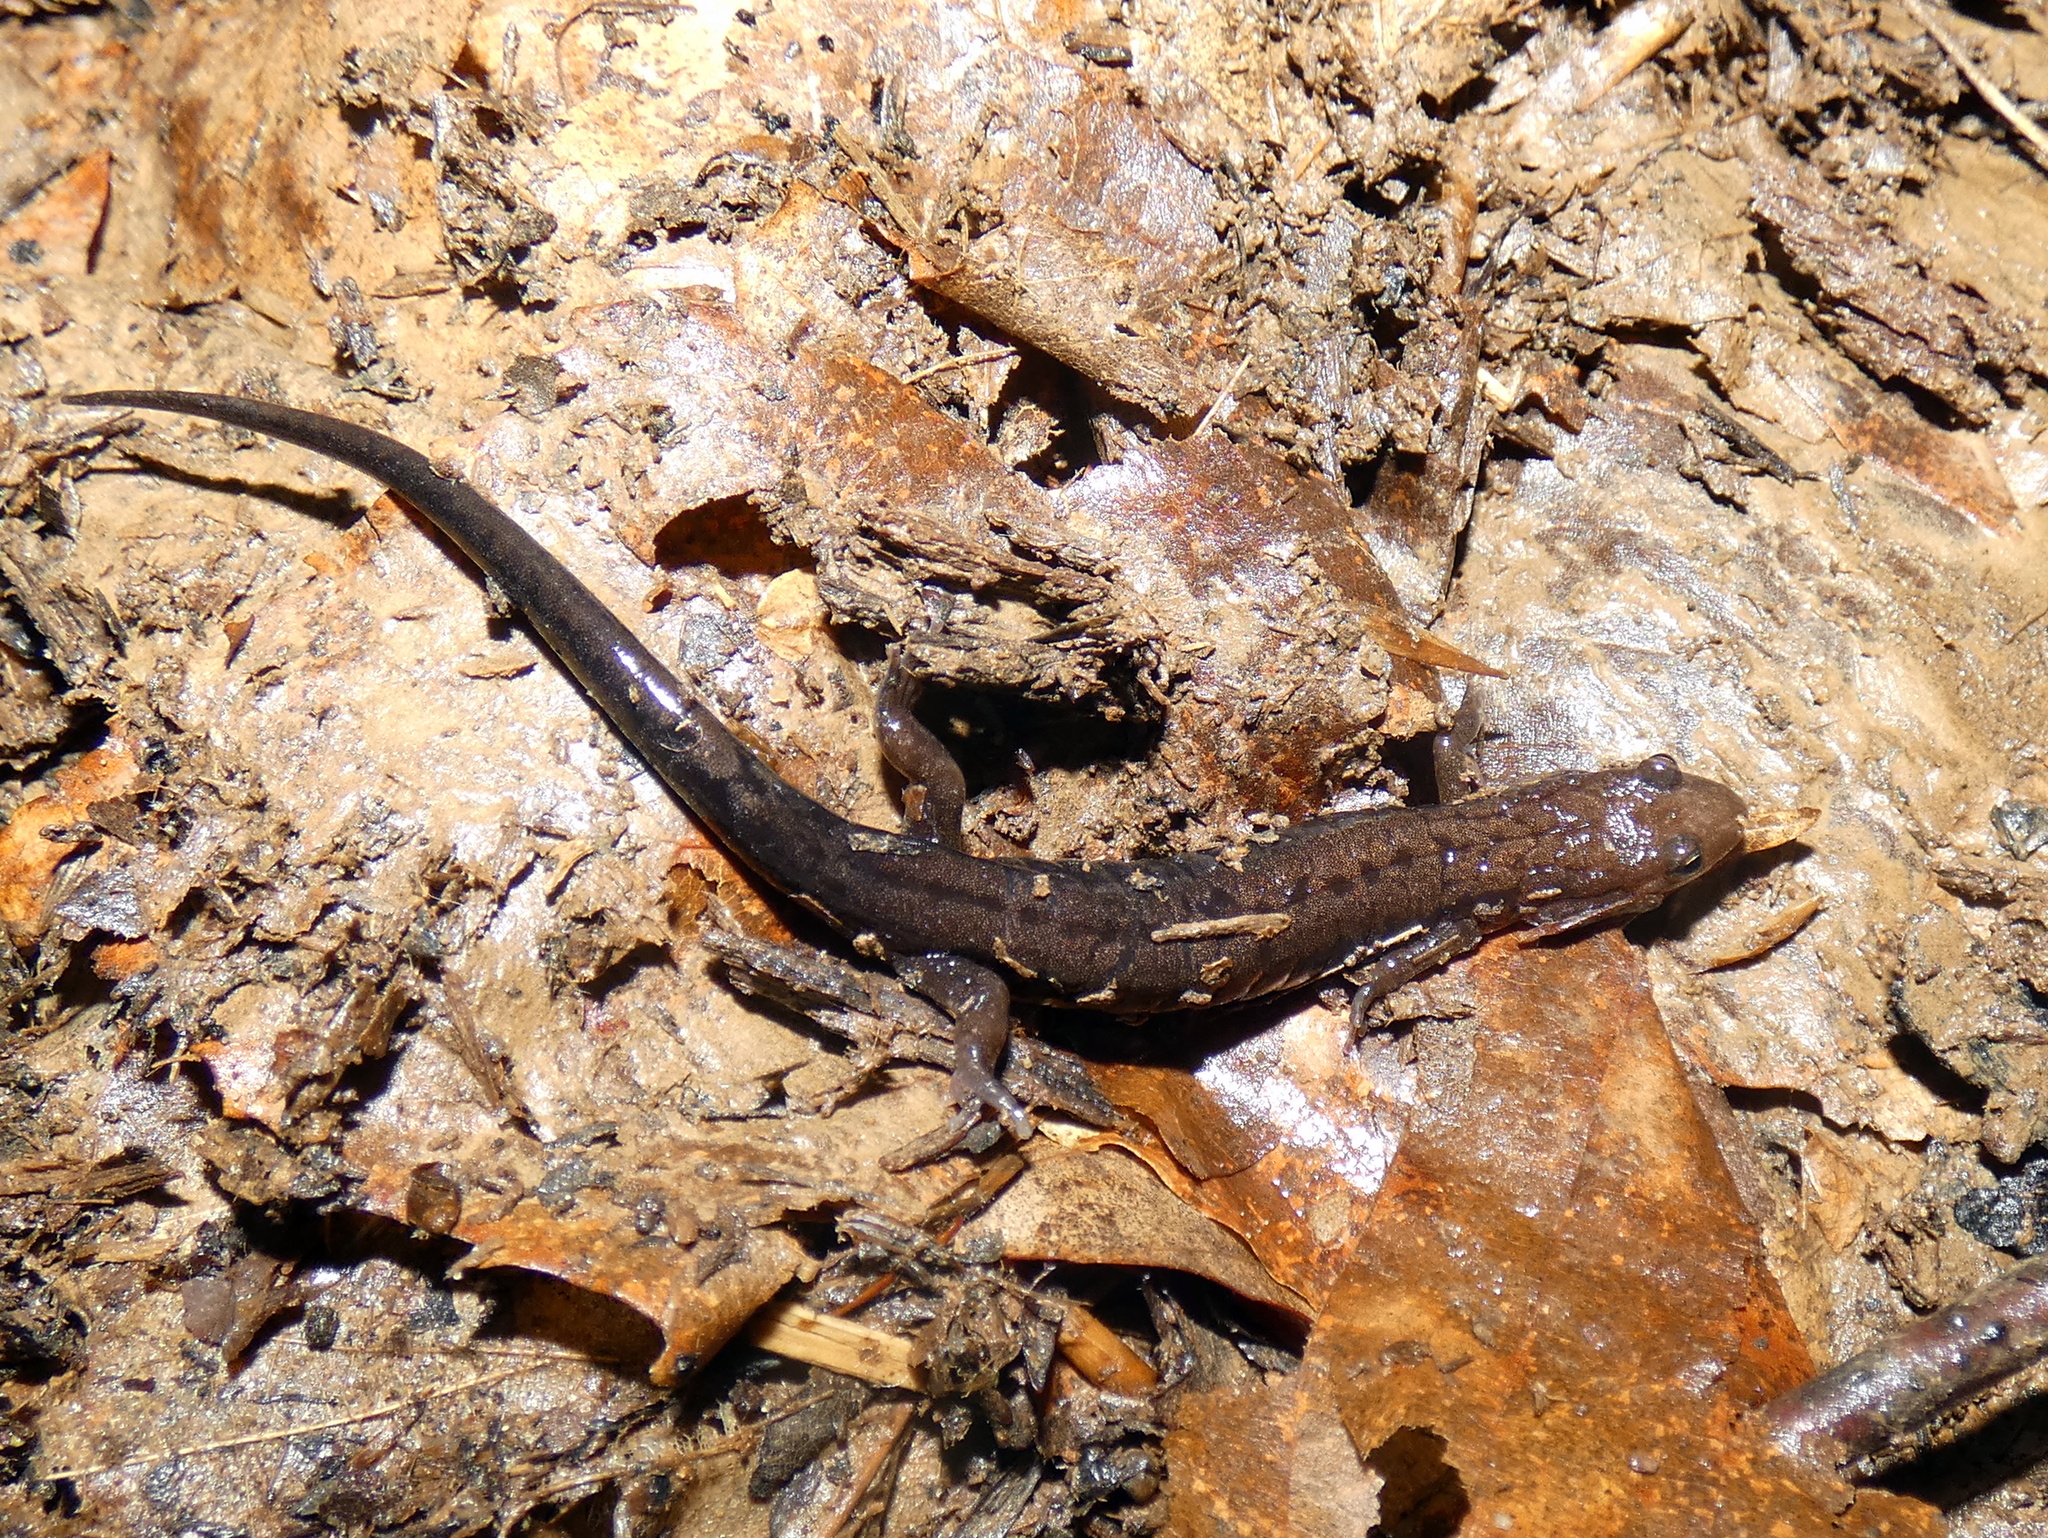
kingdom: Animalia
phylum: Chordata
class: Amphibia
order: Caudata
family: Plethodontidae
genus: Desmognathus
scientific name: Desmognathus ochrophaeus
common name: Allegheny mountain dusky salamander
